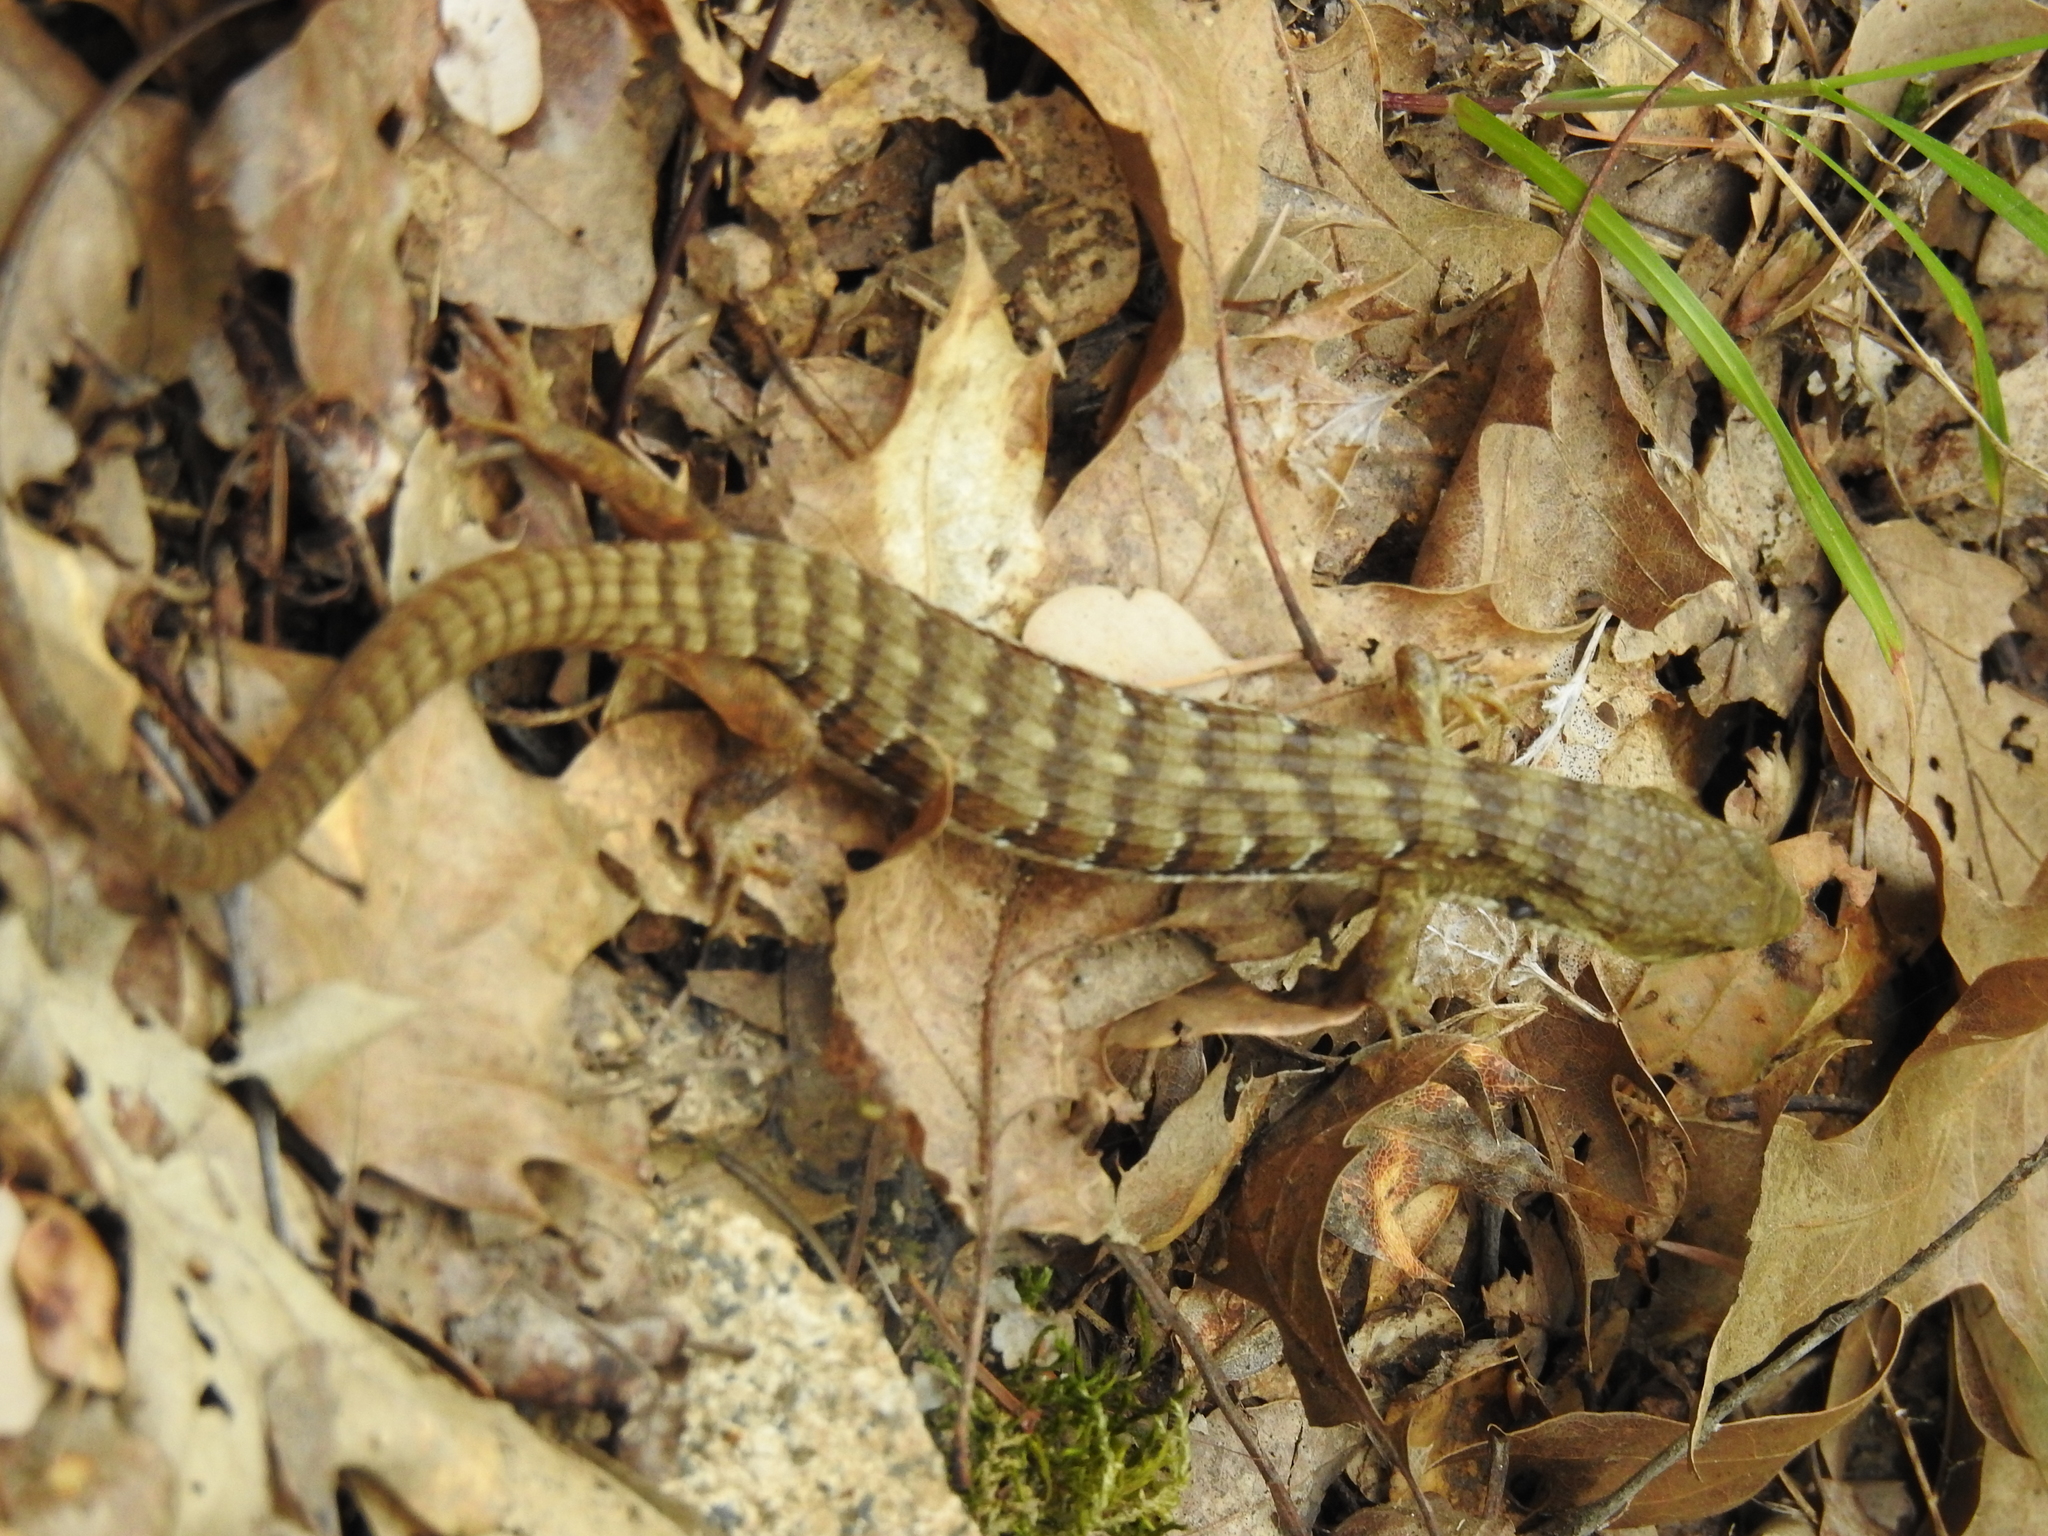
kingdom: Animalia
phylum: Chordata
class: Squamata
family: Anguidae
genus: Elgaria
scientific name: Elgaria multicarinata
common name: Southern alligator lizard
